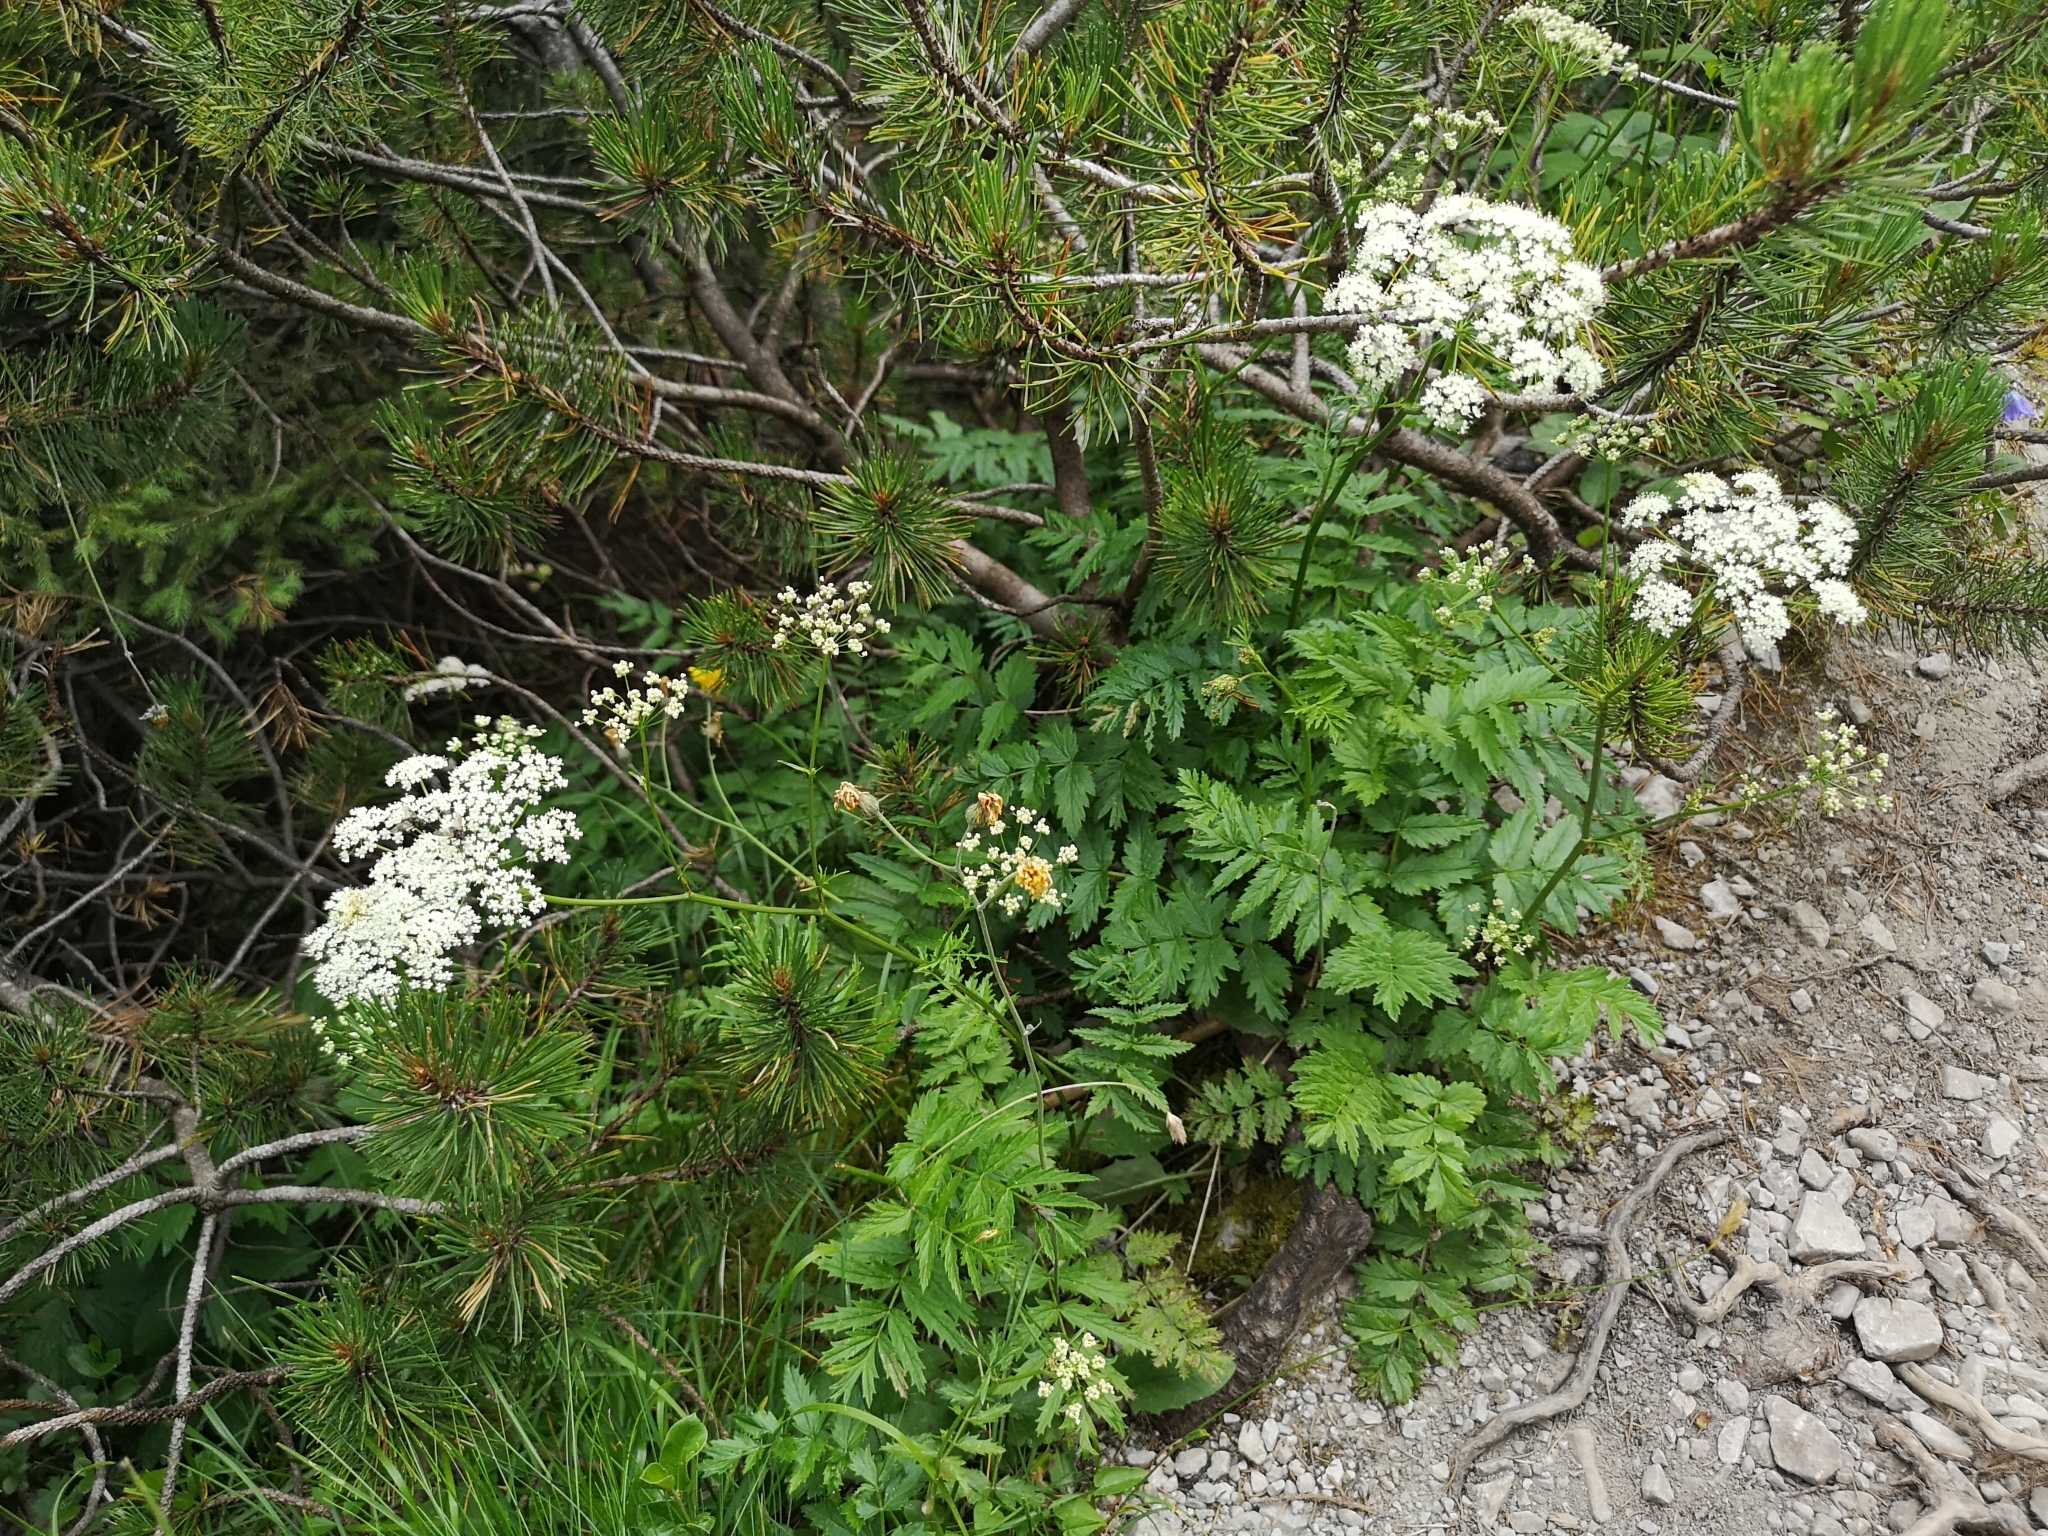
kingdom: Plantae
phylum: Tracheophyta
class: Magnoliopsida
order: Apiales
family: Apiaceae
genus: Pimpinella
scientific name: Pimpinella major
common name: Greater burnet-saxifrage
